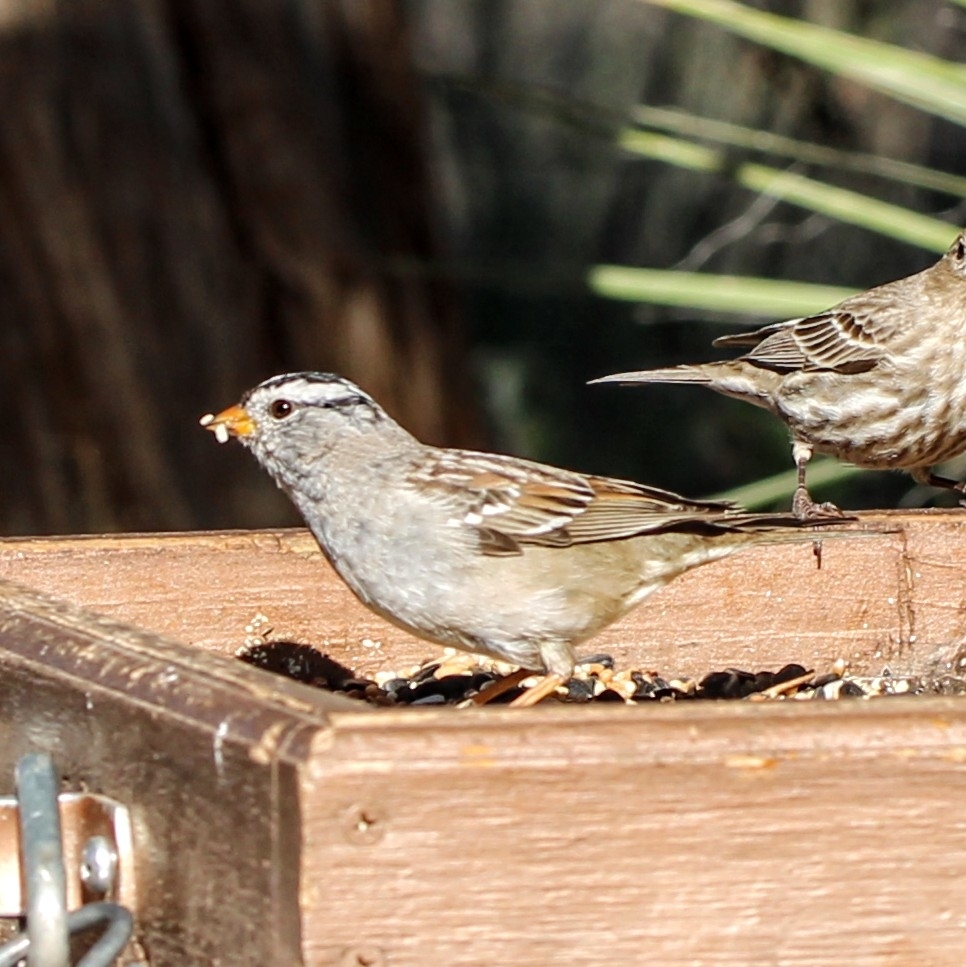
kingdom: Animalia
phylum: Chordata
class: Aves
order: Passeriformes
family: Passerellidae
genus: Zonotrichia
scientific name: Zonotrichia leucophrys
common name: White-crowned sparrow
